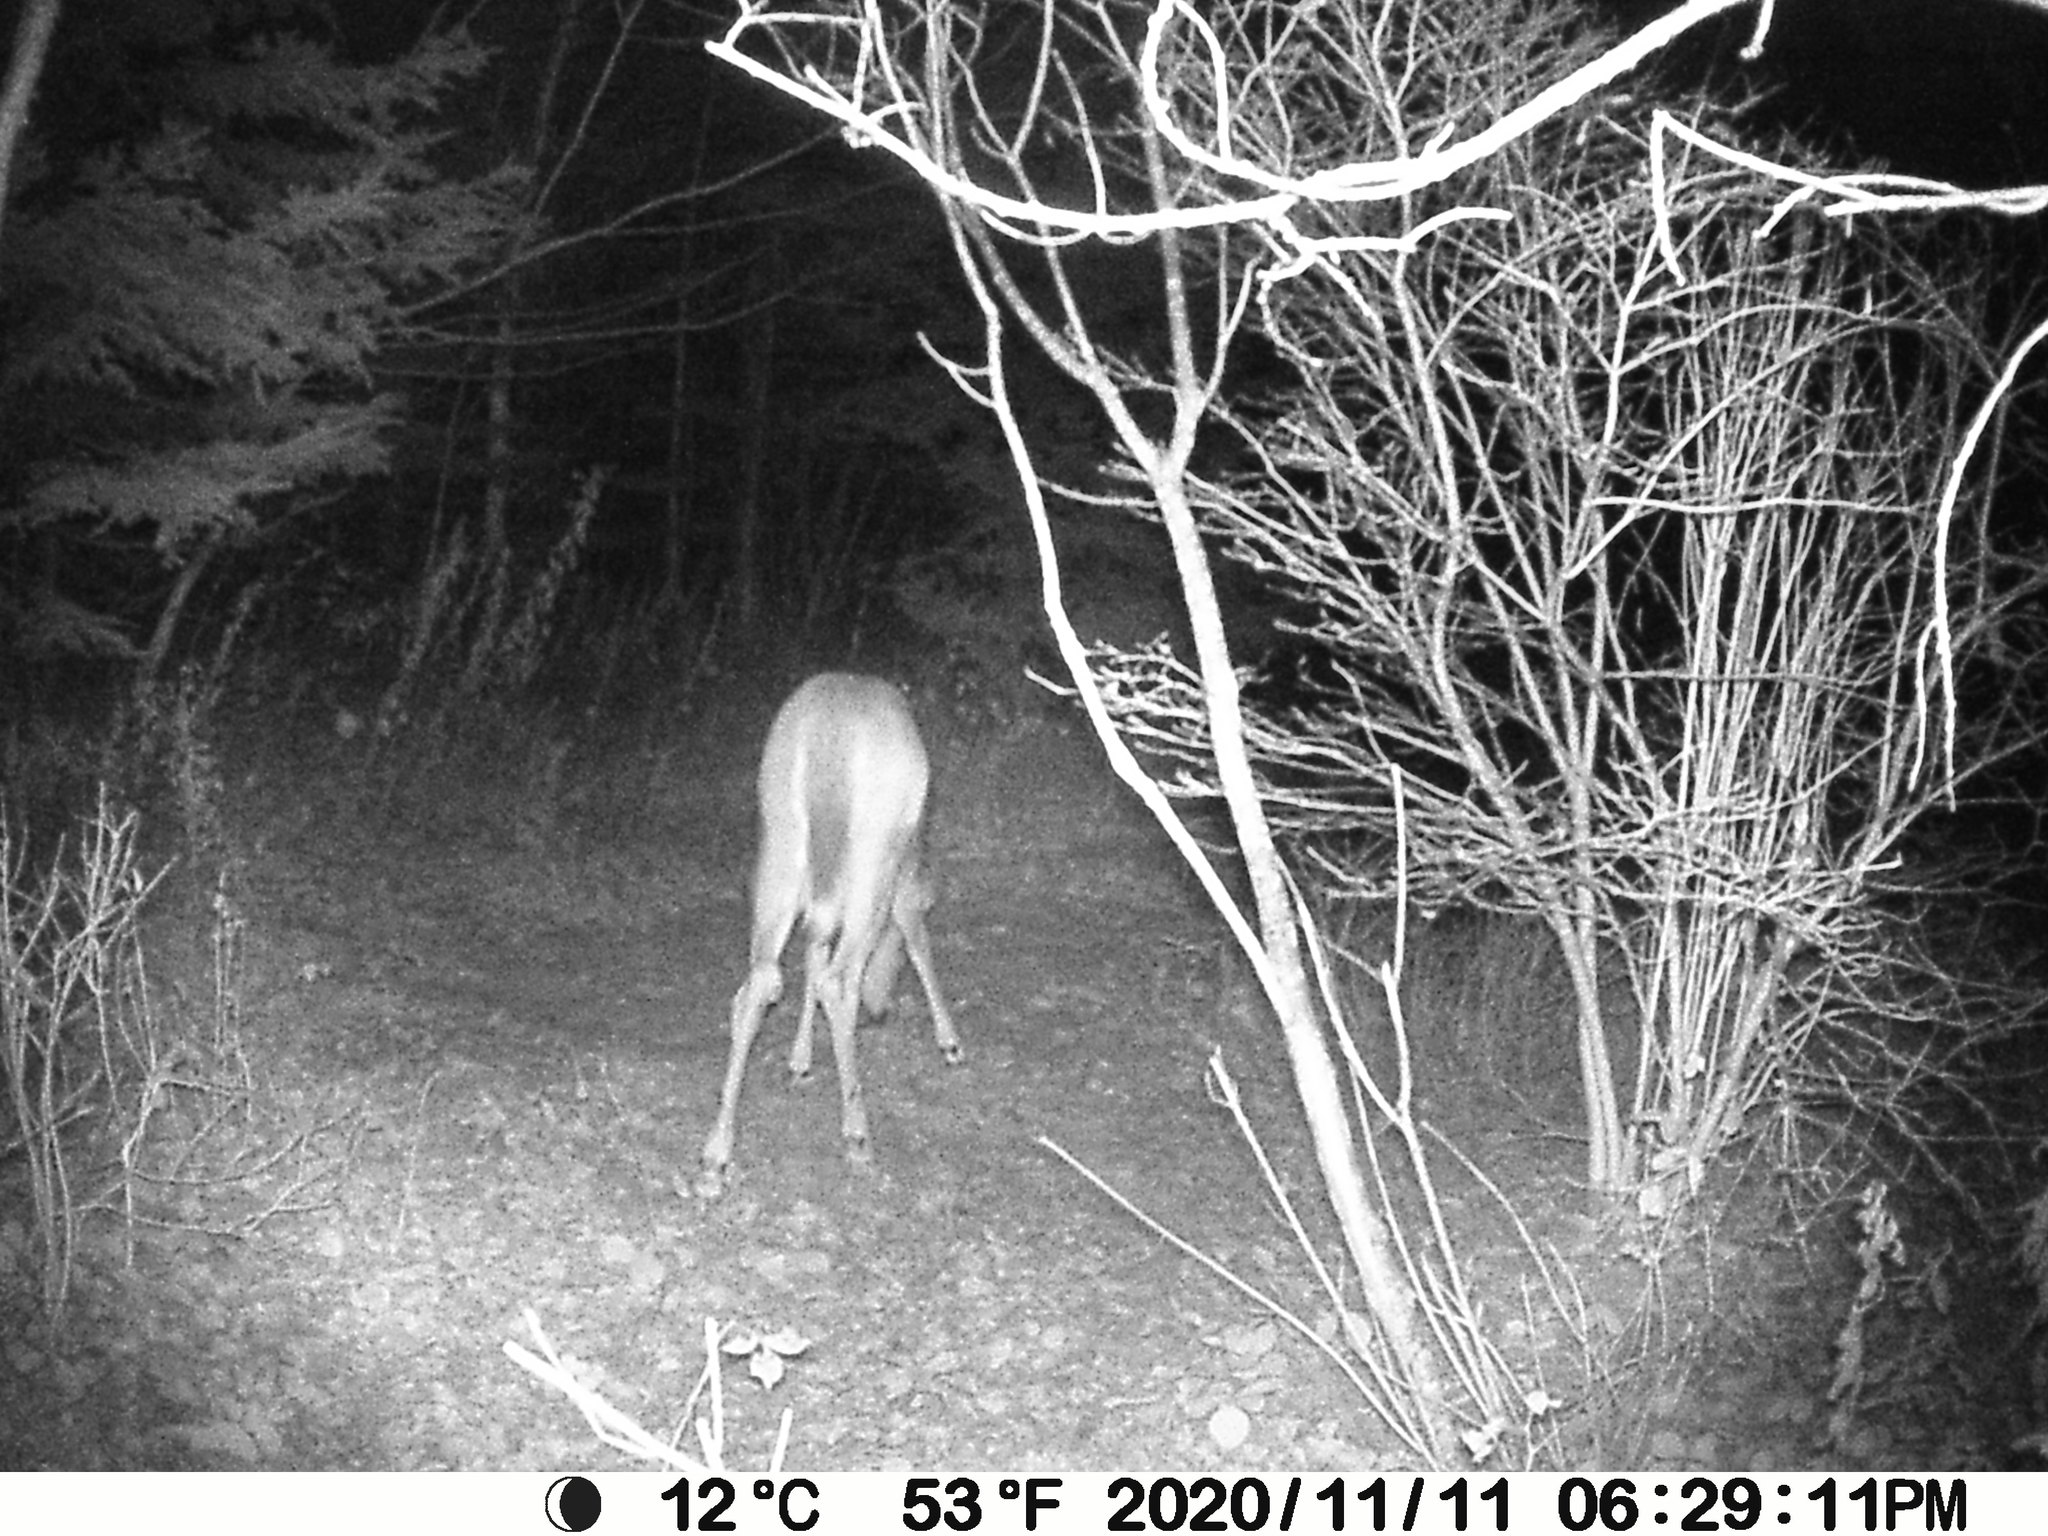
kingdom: Animalia
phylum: Chordata
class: Mammalia
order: Artiodactyla
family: Cervidae
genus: Odocoileus
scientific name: Odocoileus virginianus
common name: White-tailed deer
